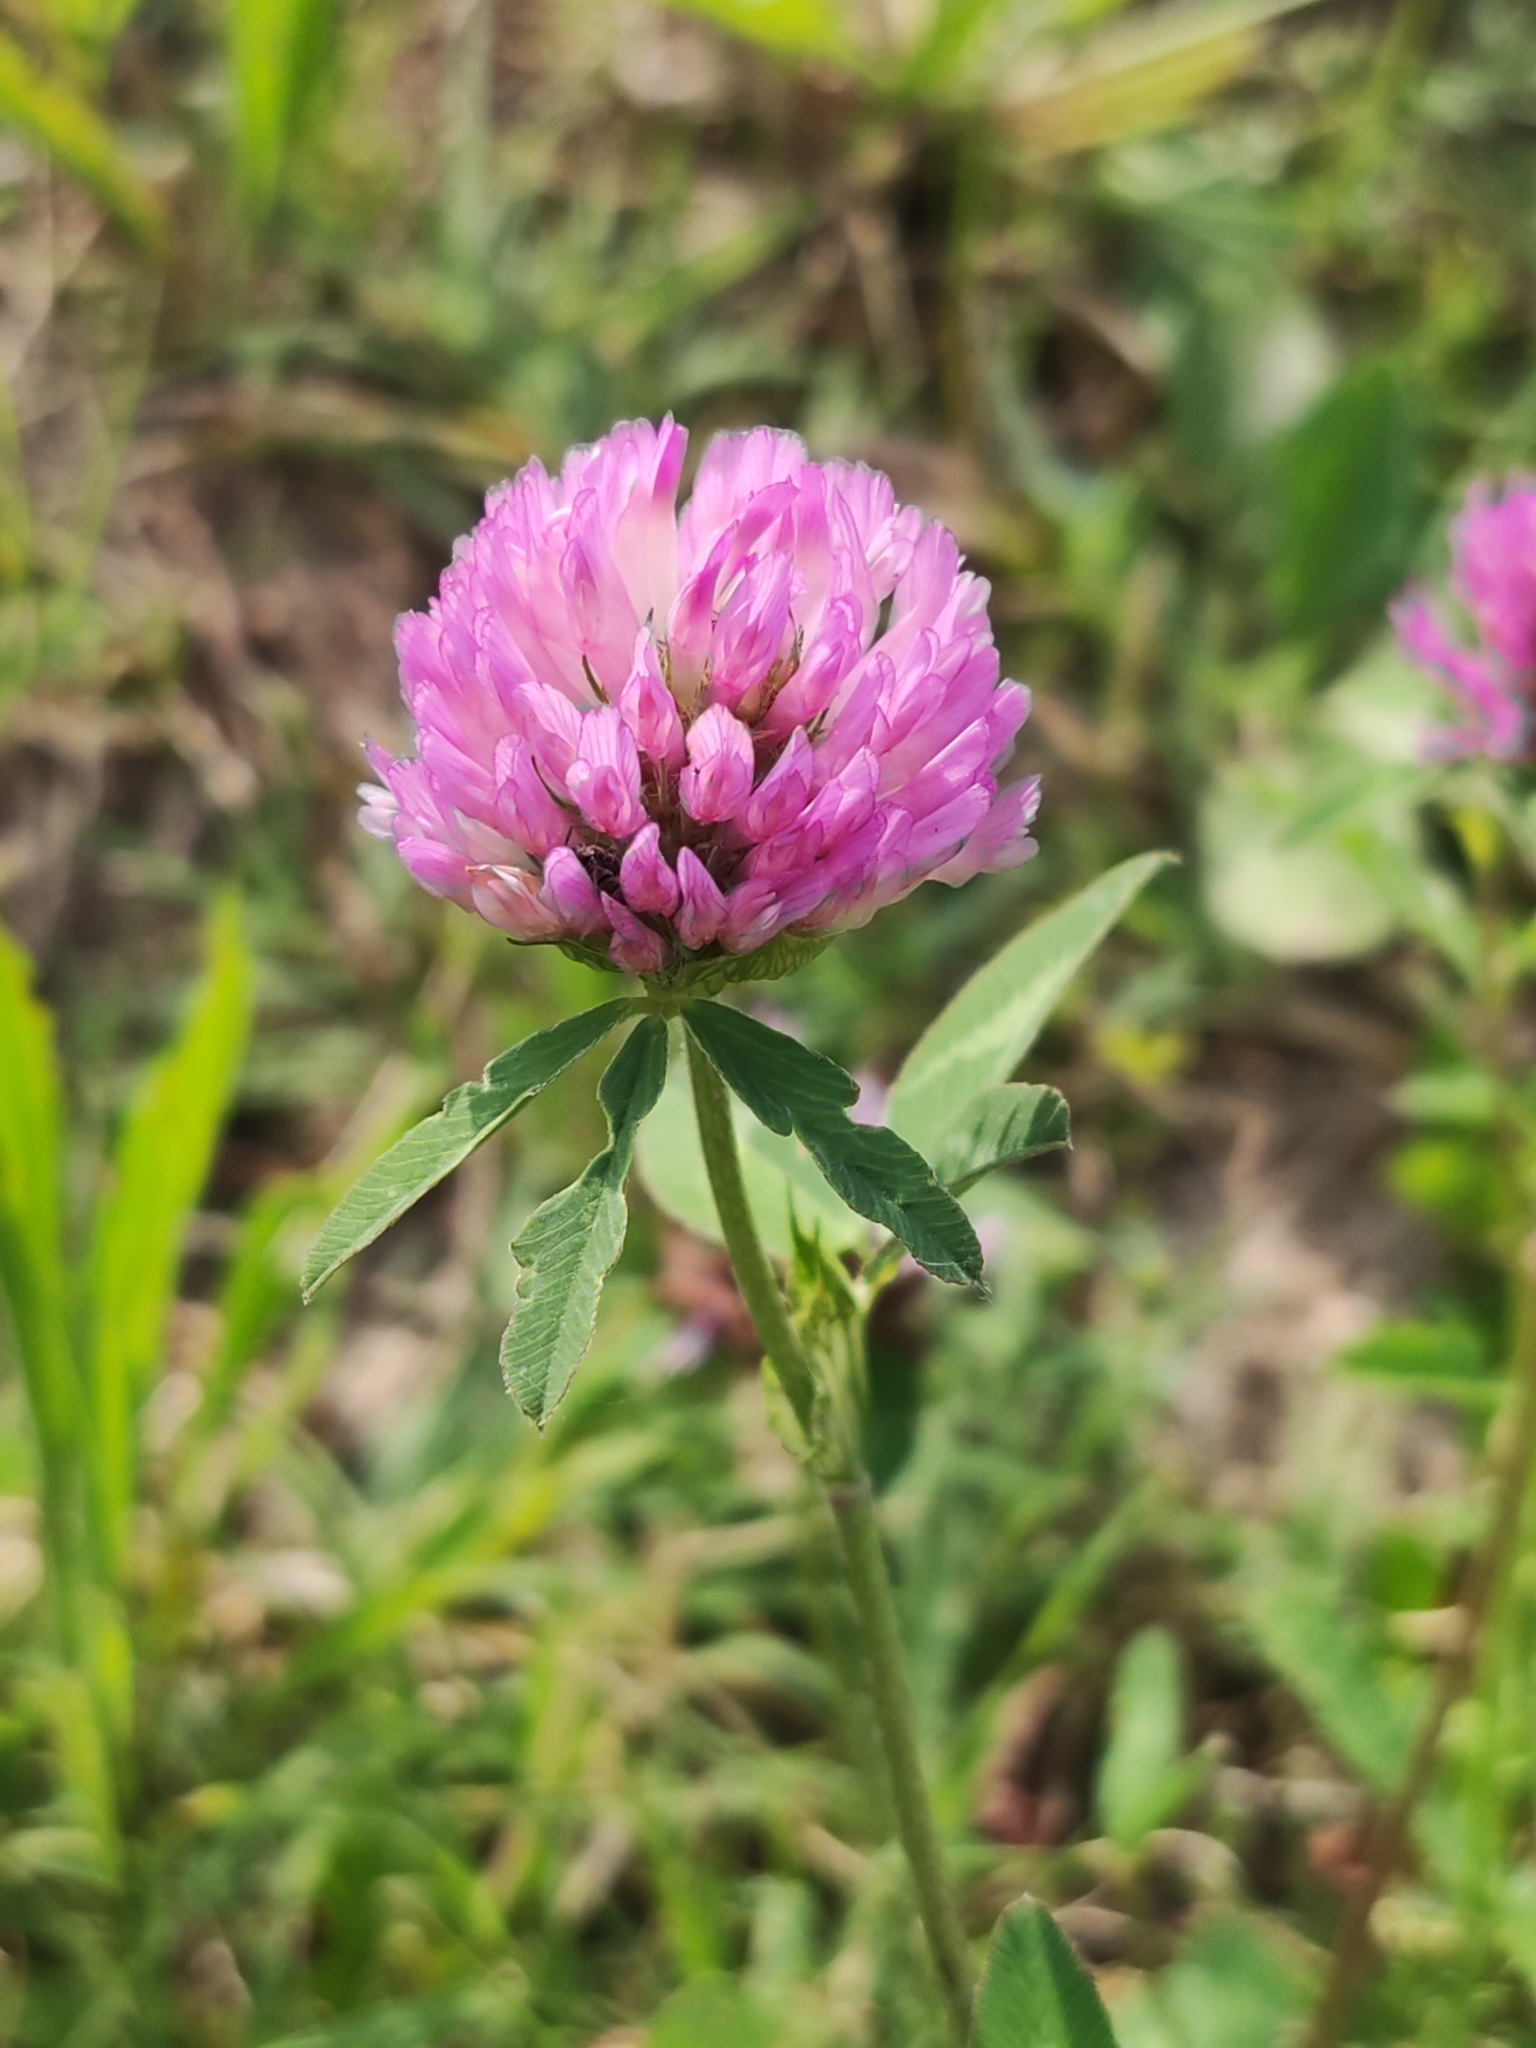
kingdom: Plantae
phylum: Tracheophyta
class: Magnoliopsida
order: Fabales
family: Fabaceae
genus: Trifolium
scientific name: Trifolium pratense
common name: Red clover
